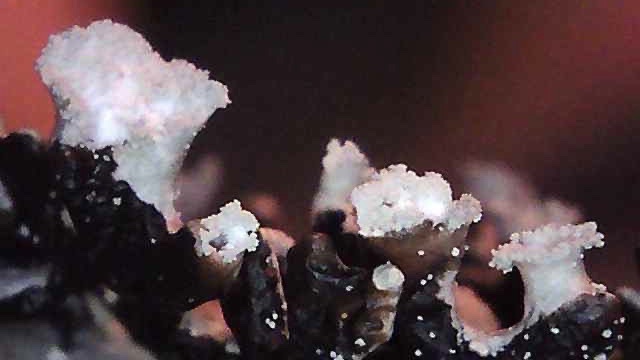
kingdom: Fungi
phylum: Ascomycota
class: Lecanoromycetes
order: Lecanorales
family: Parmeliaceae
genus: Hypogymnia
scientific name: Hypogymnia physodes
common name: Dark crottle
